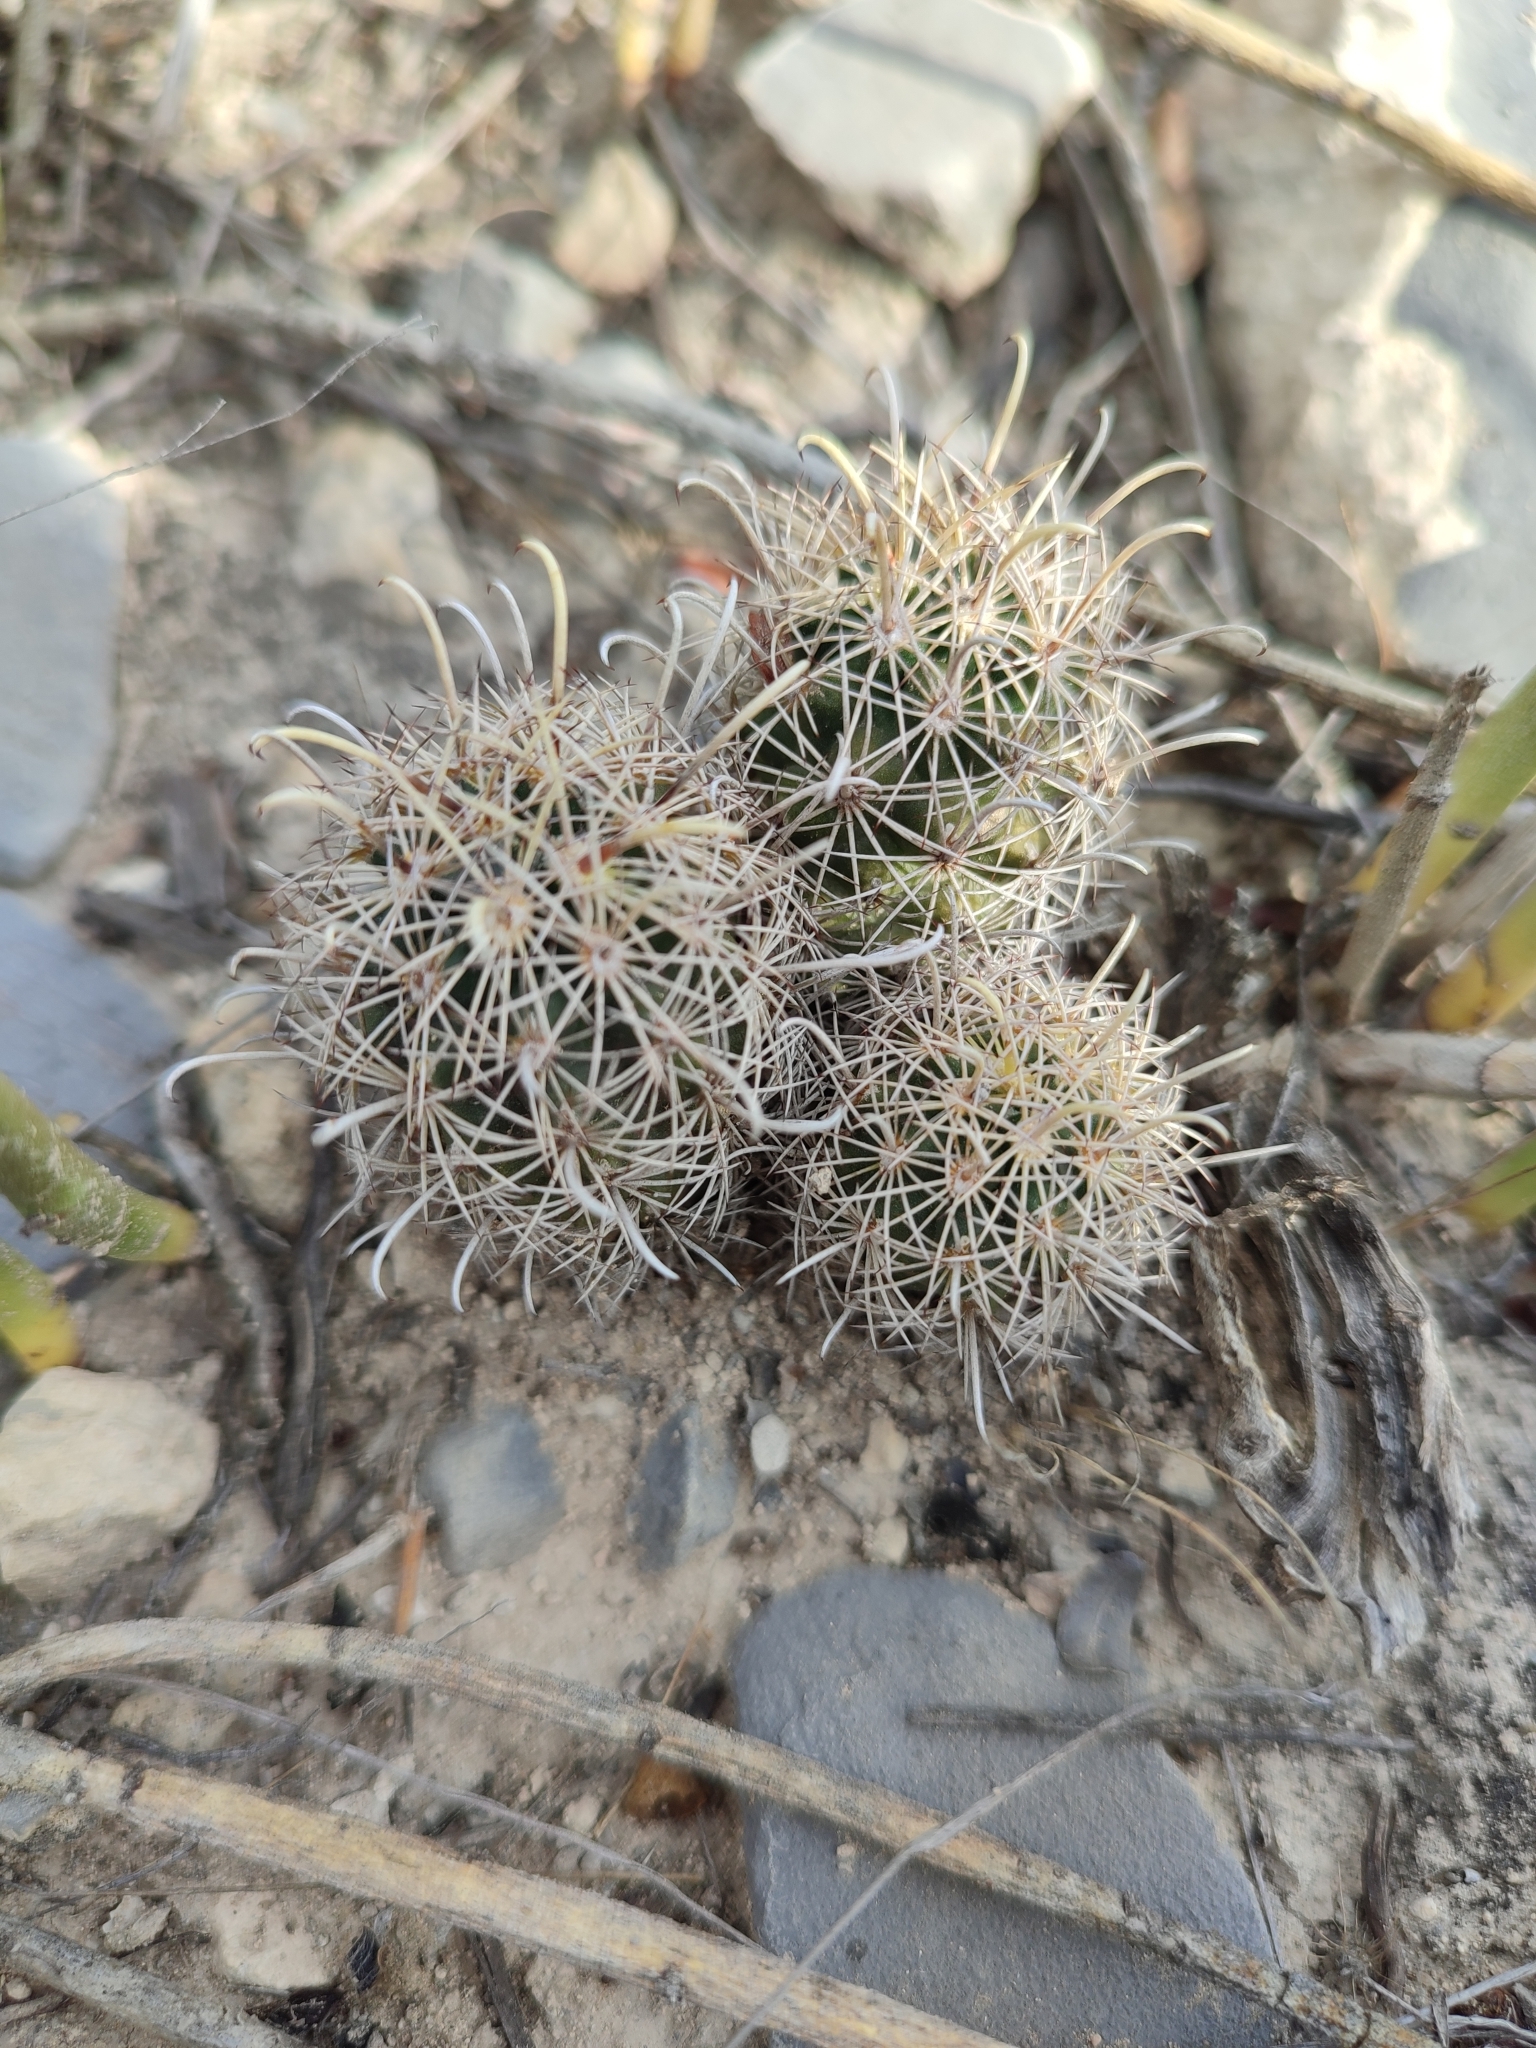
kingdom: Plantae
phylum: Tracheophyta
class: Magnoliopsida
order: Caryophyllales
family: Cactaceae
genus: Sclerocactus
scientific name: Sclerocactus scheerii
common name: Scheer's fish-hook cactus
